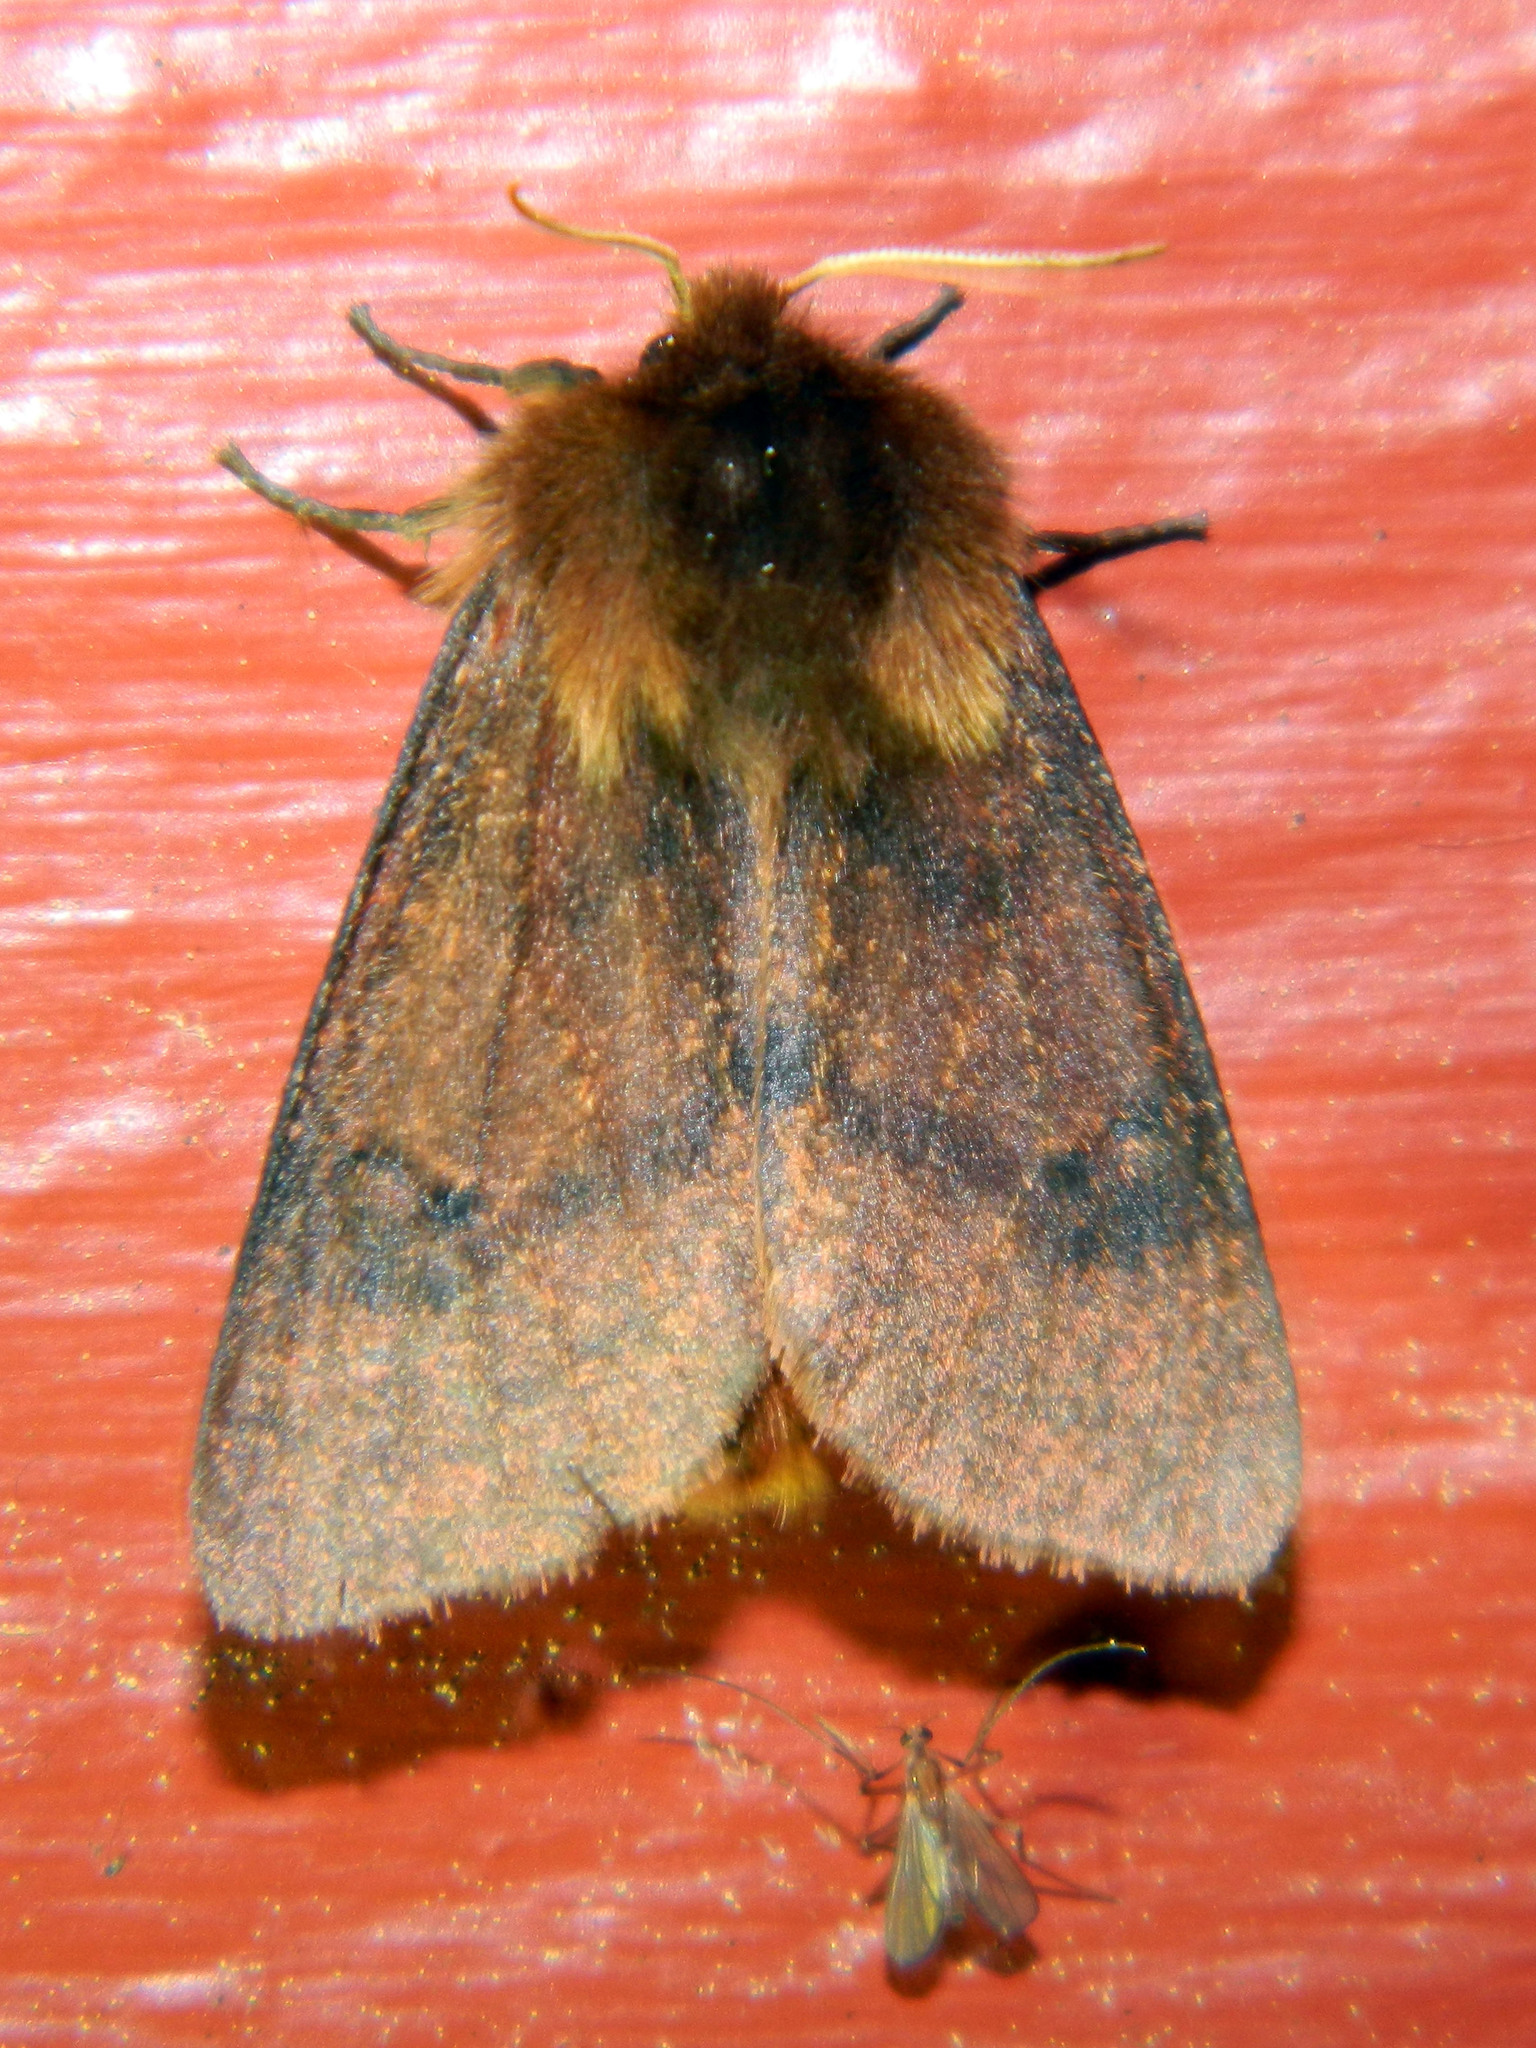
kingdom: Animalia
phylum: Arthropoda
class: Insecta
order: Lepidoptera
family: Erebidae
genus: Phragmatobia
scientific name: Phragmatobia assimilans
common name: Large ruby tiger moth
